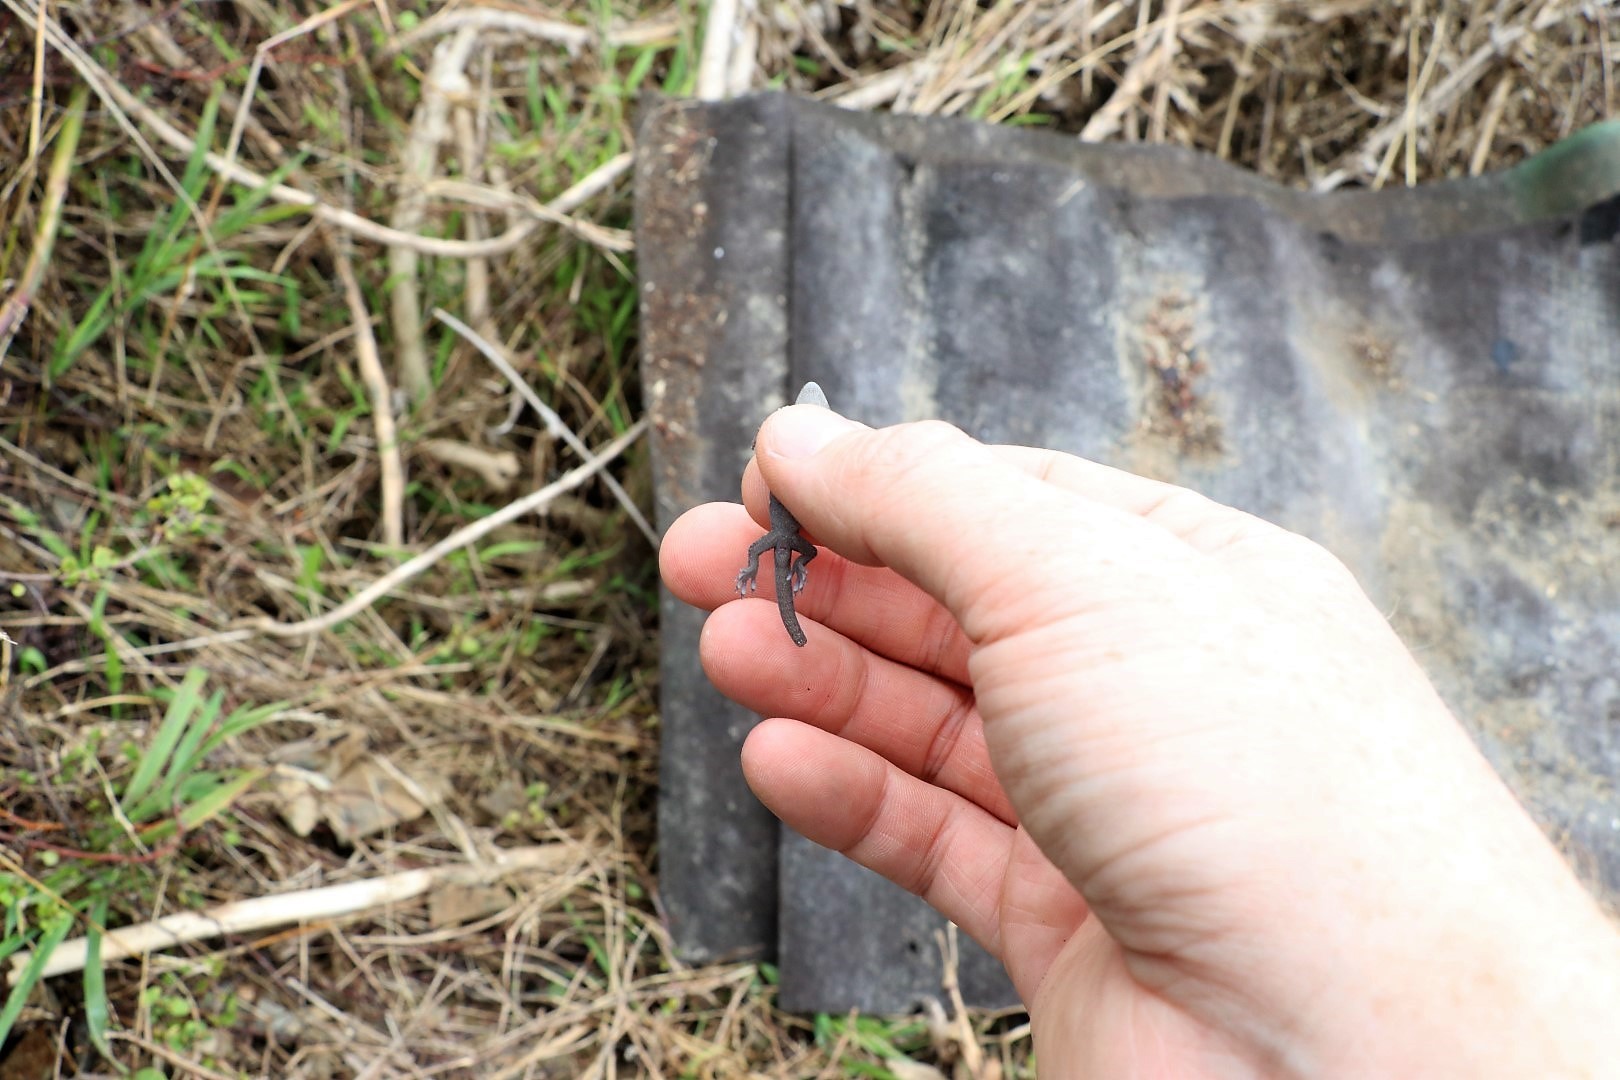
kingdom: Animalia
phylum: Chordata
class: Squamata
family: Diplodactylidae
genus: Woodworthia
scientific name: Woodworthia maculata
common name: Raukawa gecko
